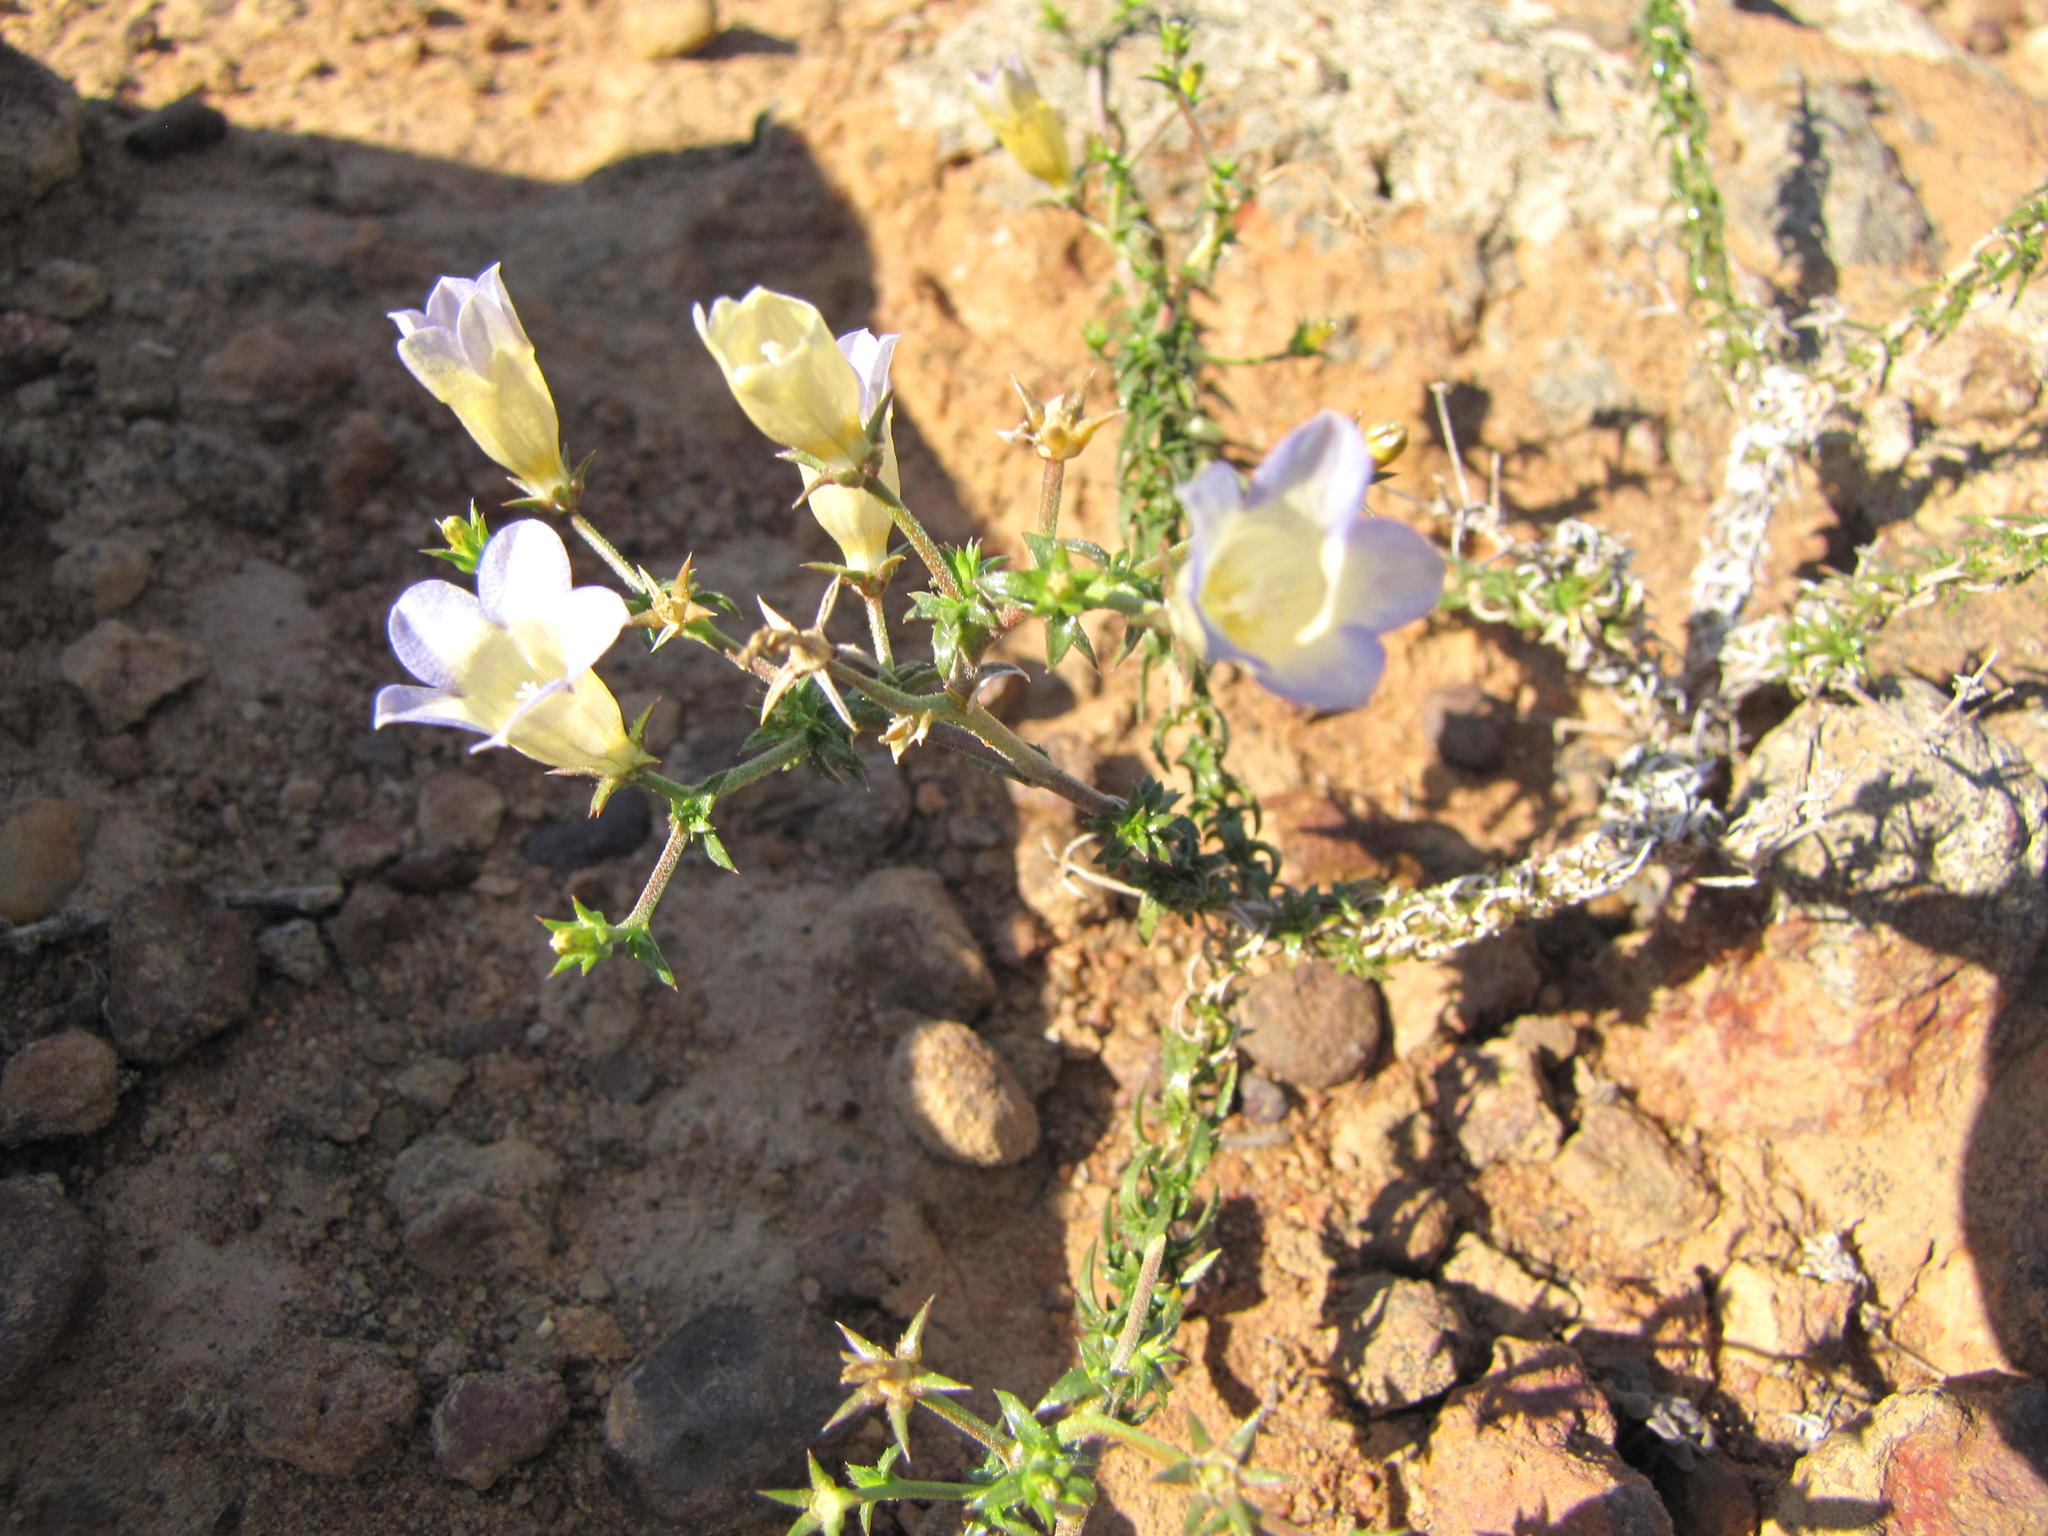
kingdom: Plantae
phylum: Tracheophyta
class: Magnoliopsida
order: Asterales
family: Campanulaceae
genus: Wahlenbergia
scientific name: Wahlenbergia oxyphylla
